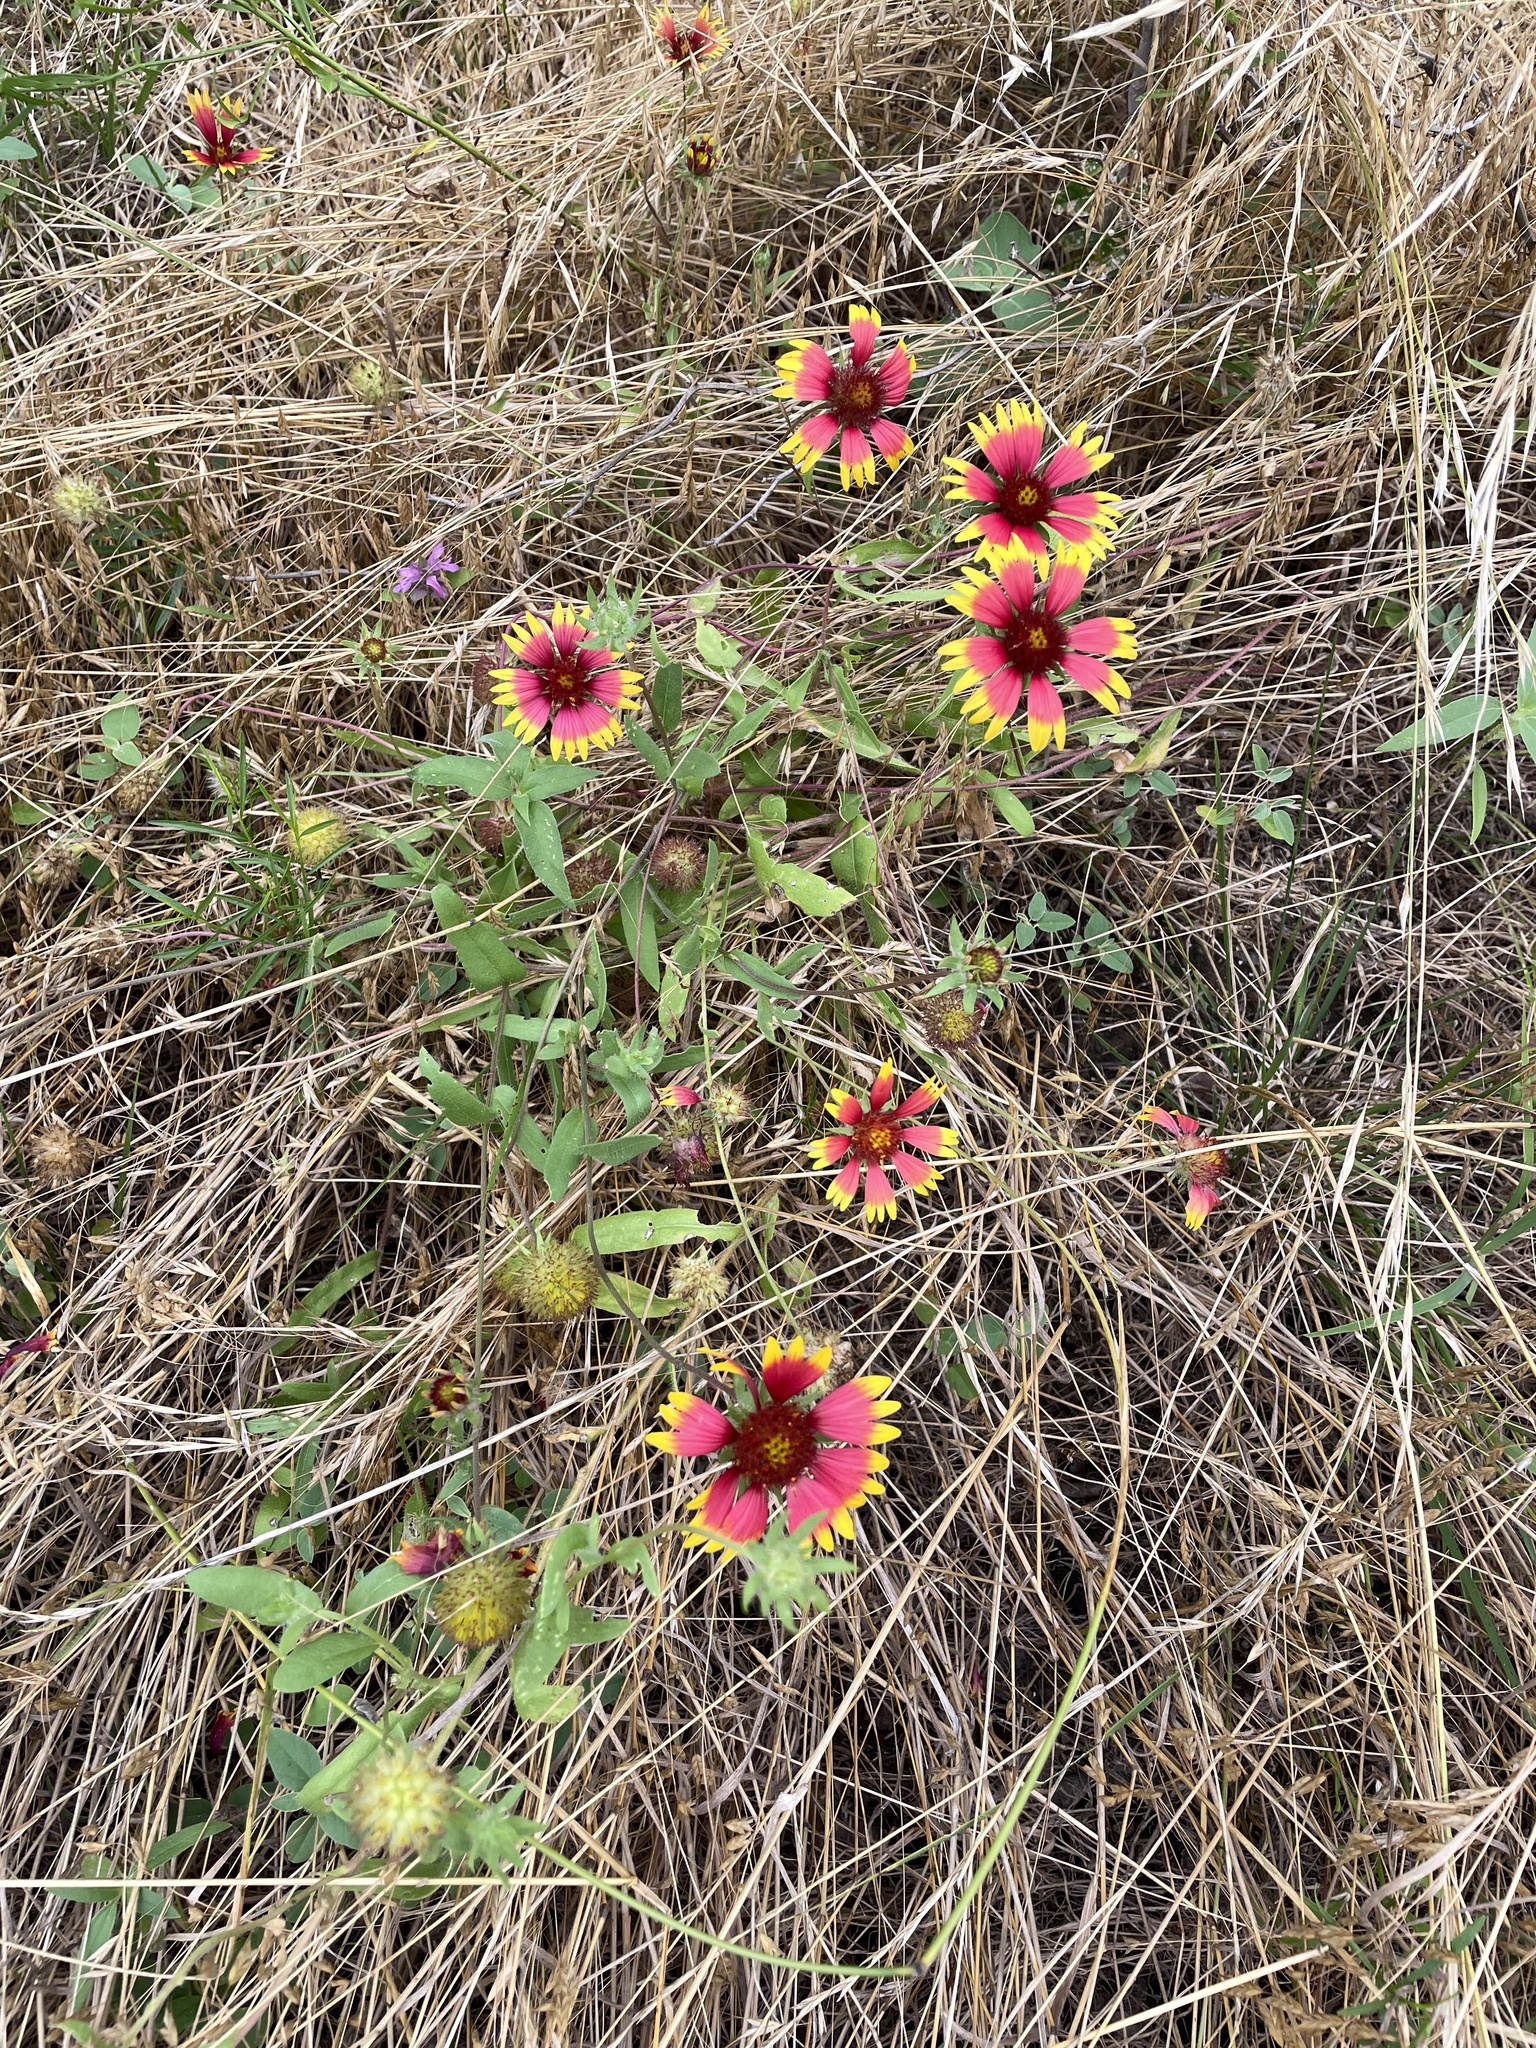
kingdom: Plantae
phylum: Tracheophyta
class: Magnoliopsida
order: Asterales
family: Asteraceae
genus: Gaillardia
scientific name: Gaillardia pulchella
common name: Firewheel
